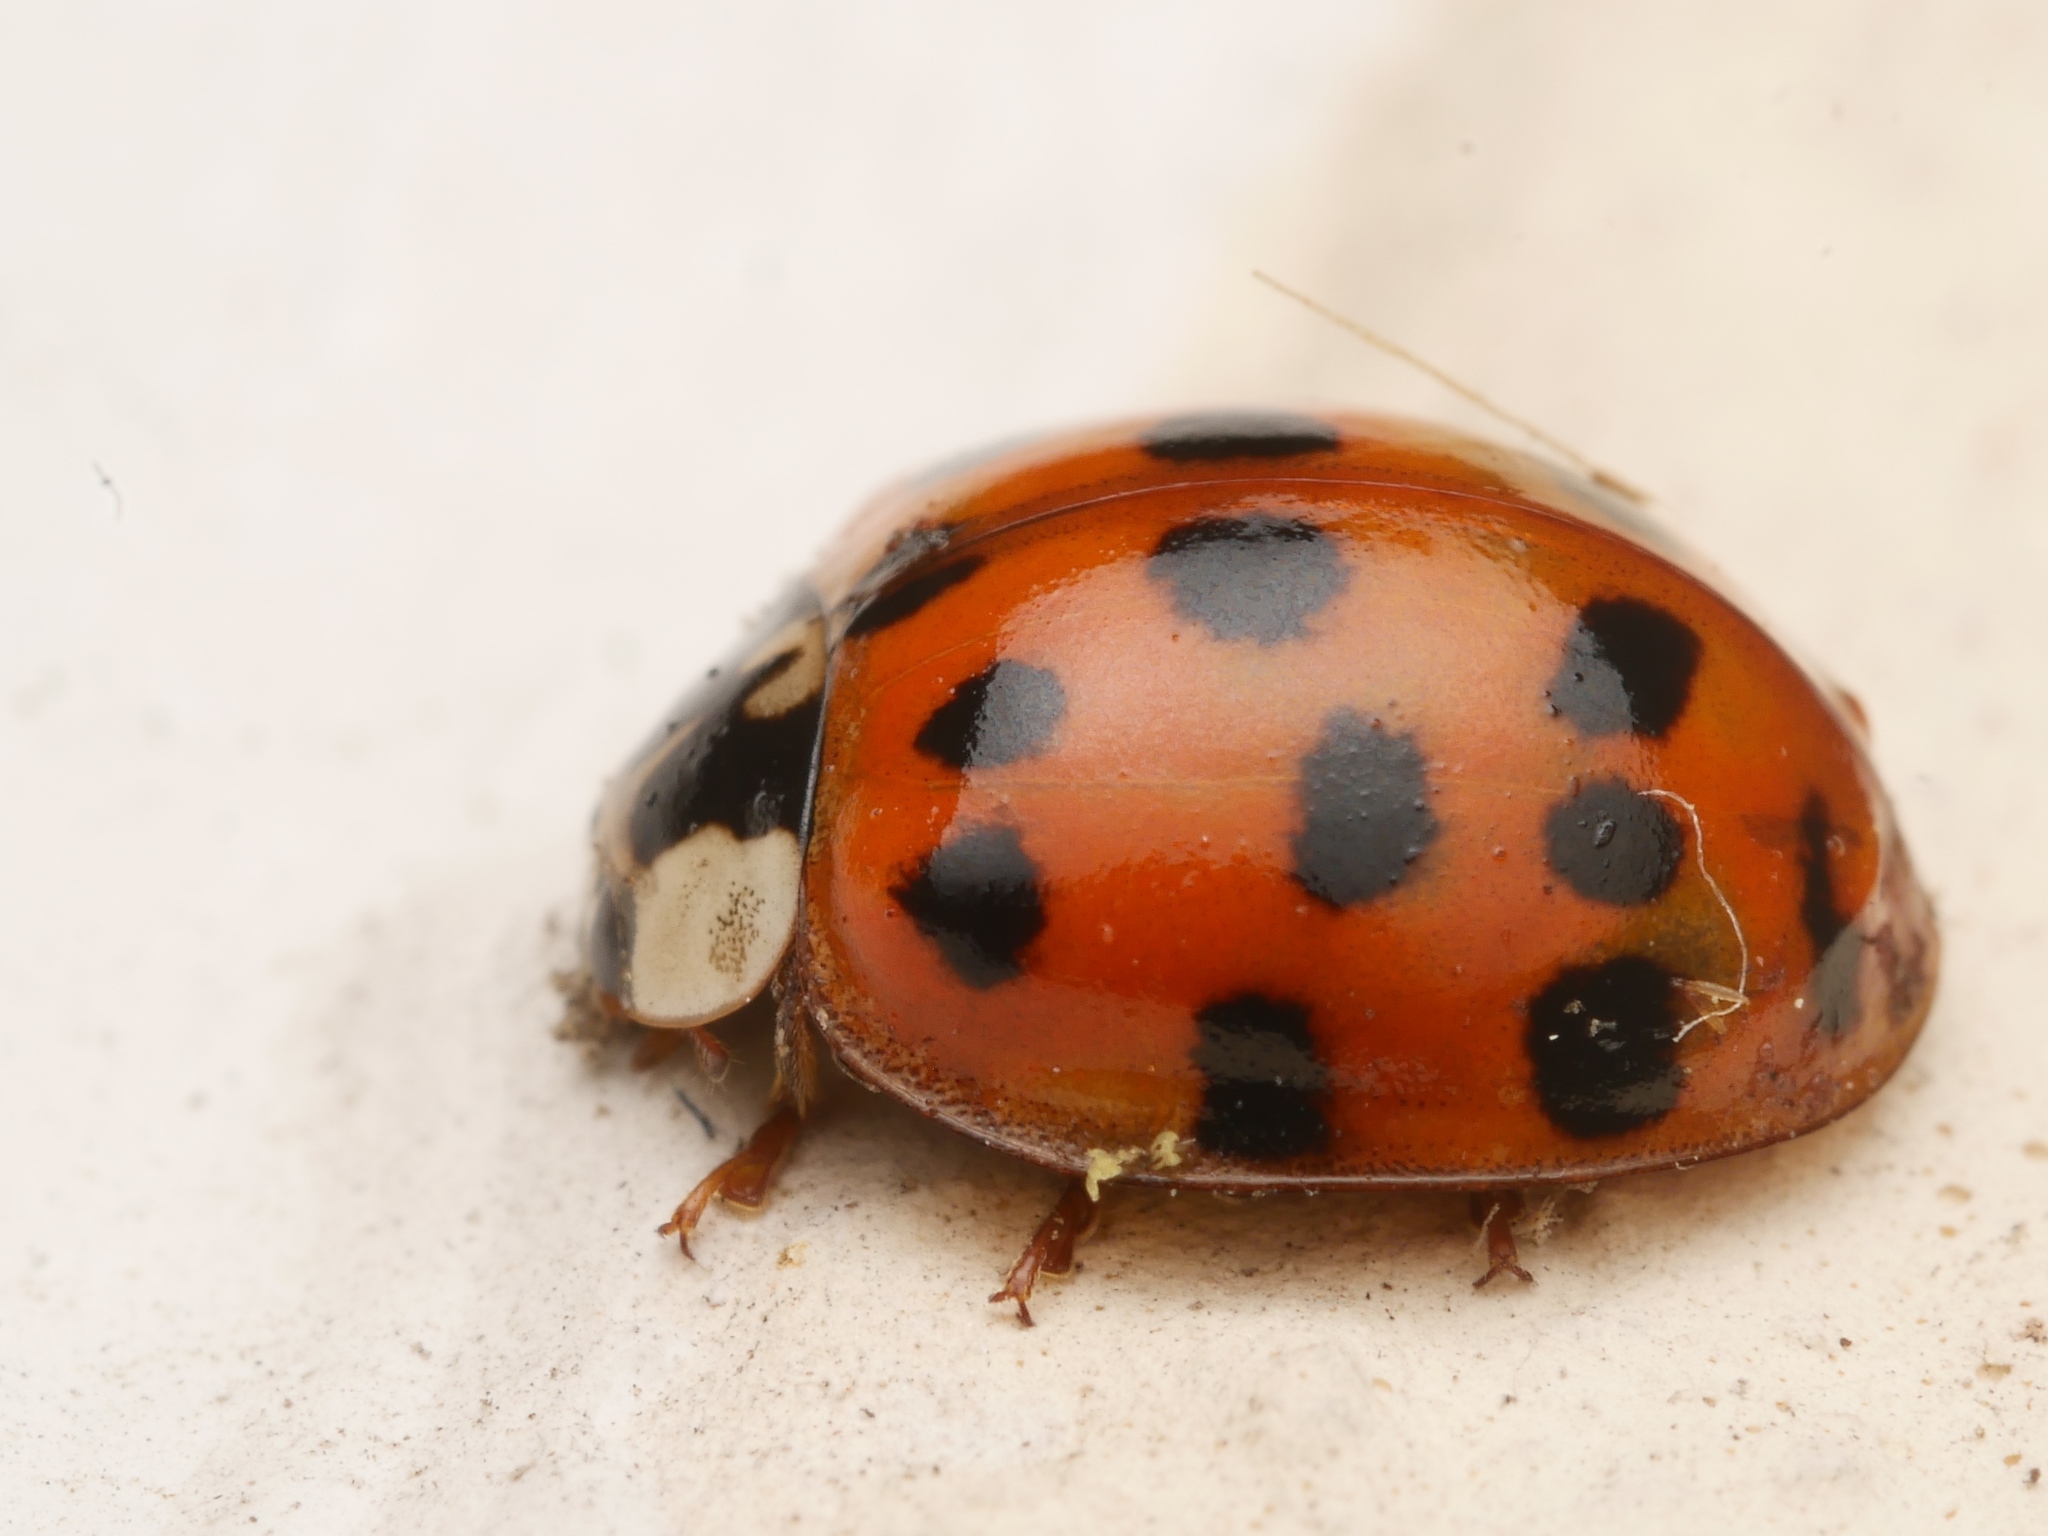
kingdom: Animalia
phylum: Arthropoda
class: Insecta
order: Coleoptera
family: Coccinellidae
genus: Harmonia
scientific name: Harmonia axyridis
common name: Harlequin ladybird
